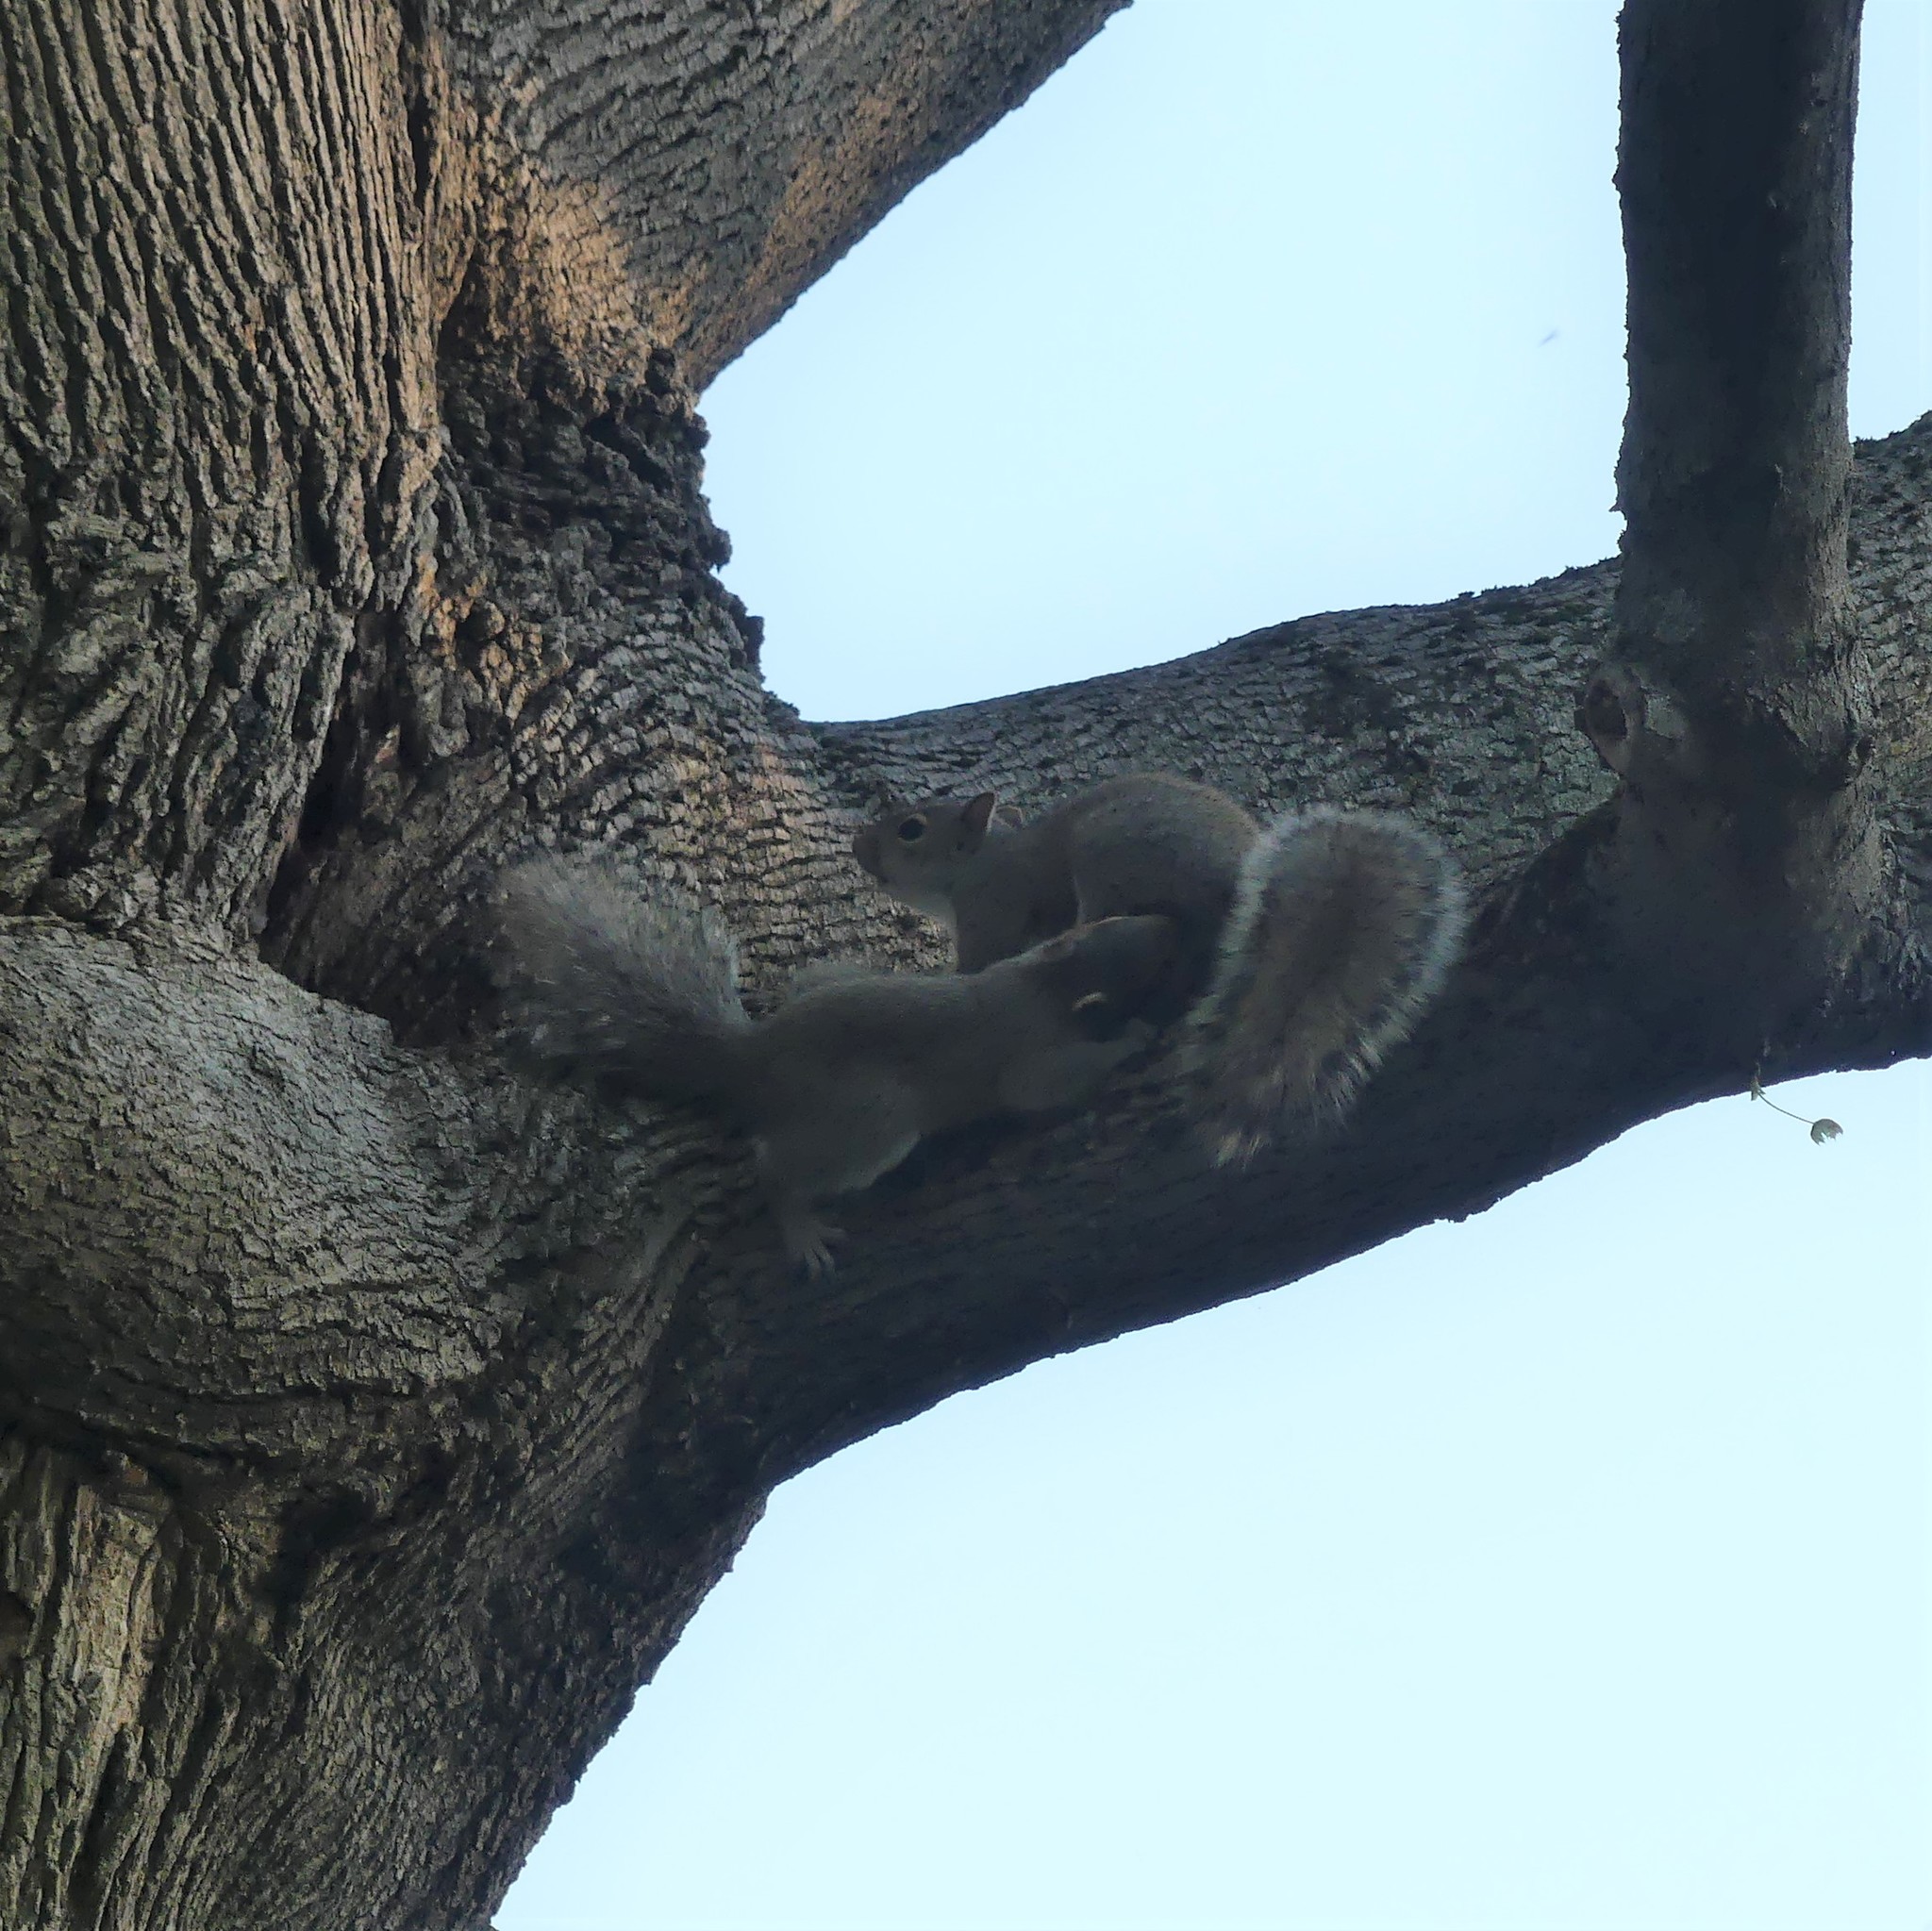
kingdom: Animalia
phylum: Chordata
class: Mammalia
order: Rodentia
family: Sciuridae
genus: Sciurus
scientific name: Sciurus carolinensis
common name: Eastern gray squirrel
